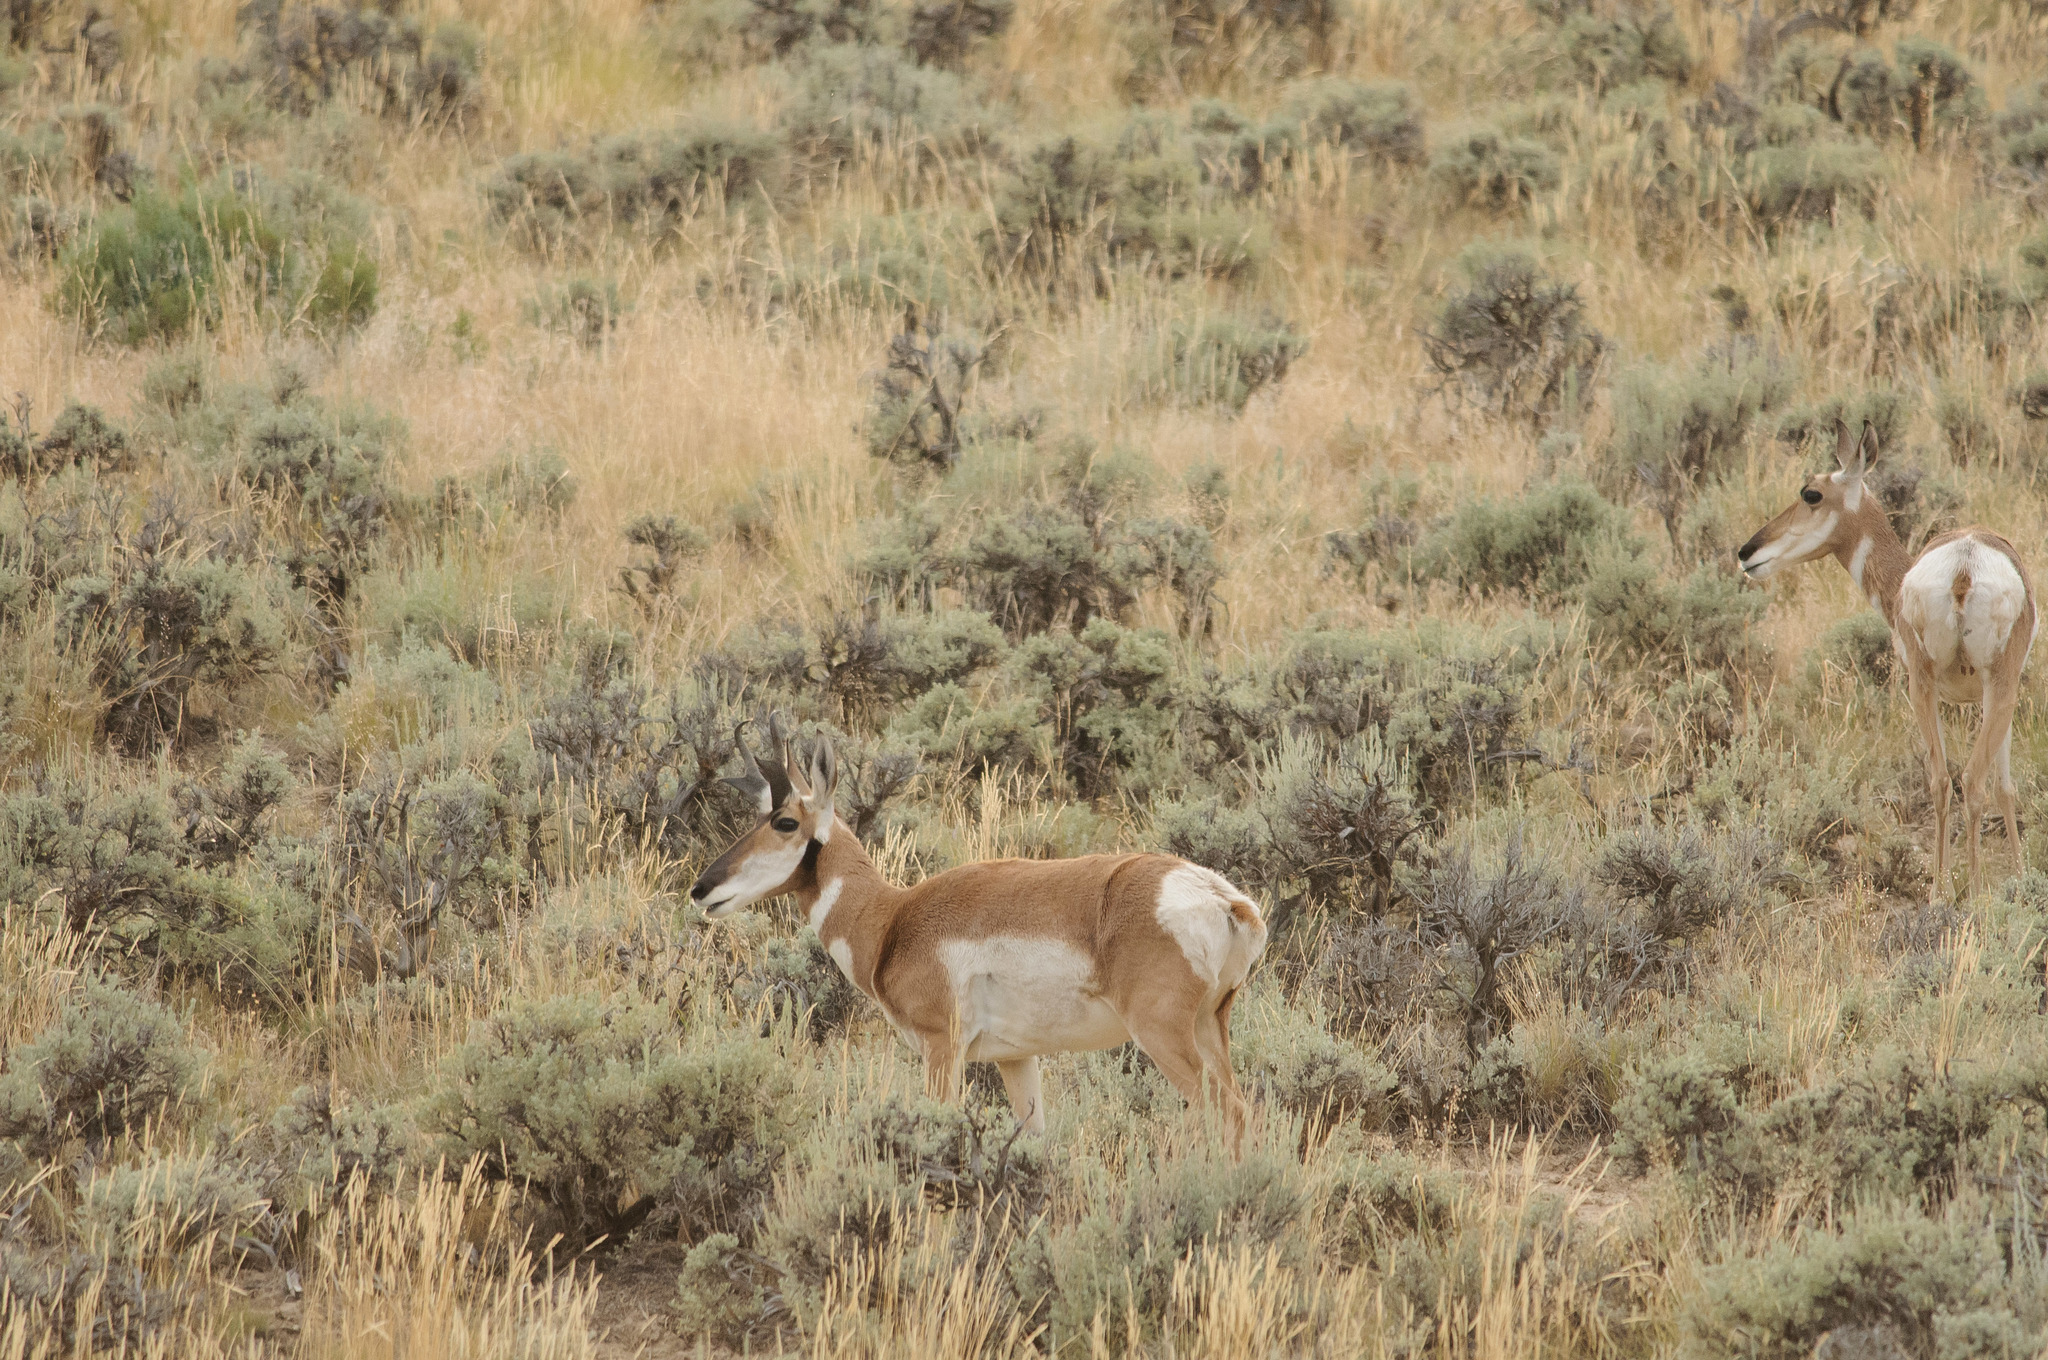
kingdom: Animalia
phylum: Chordata
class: Mammalia
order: Artiodactyla
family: Antilocapridae
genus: Antilocapra
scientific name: Antilocapra americana
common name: Pronghorn
